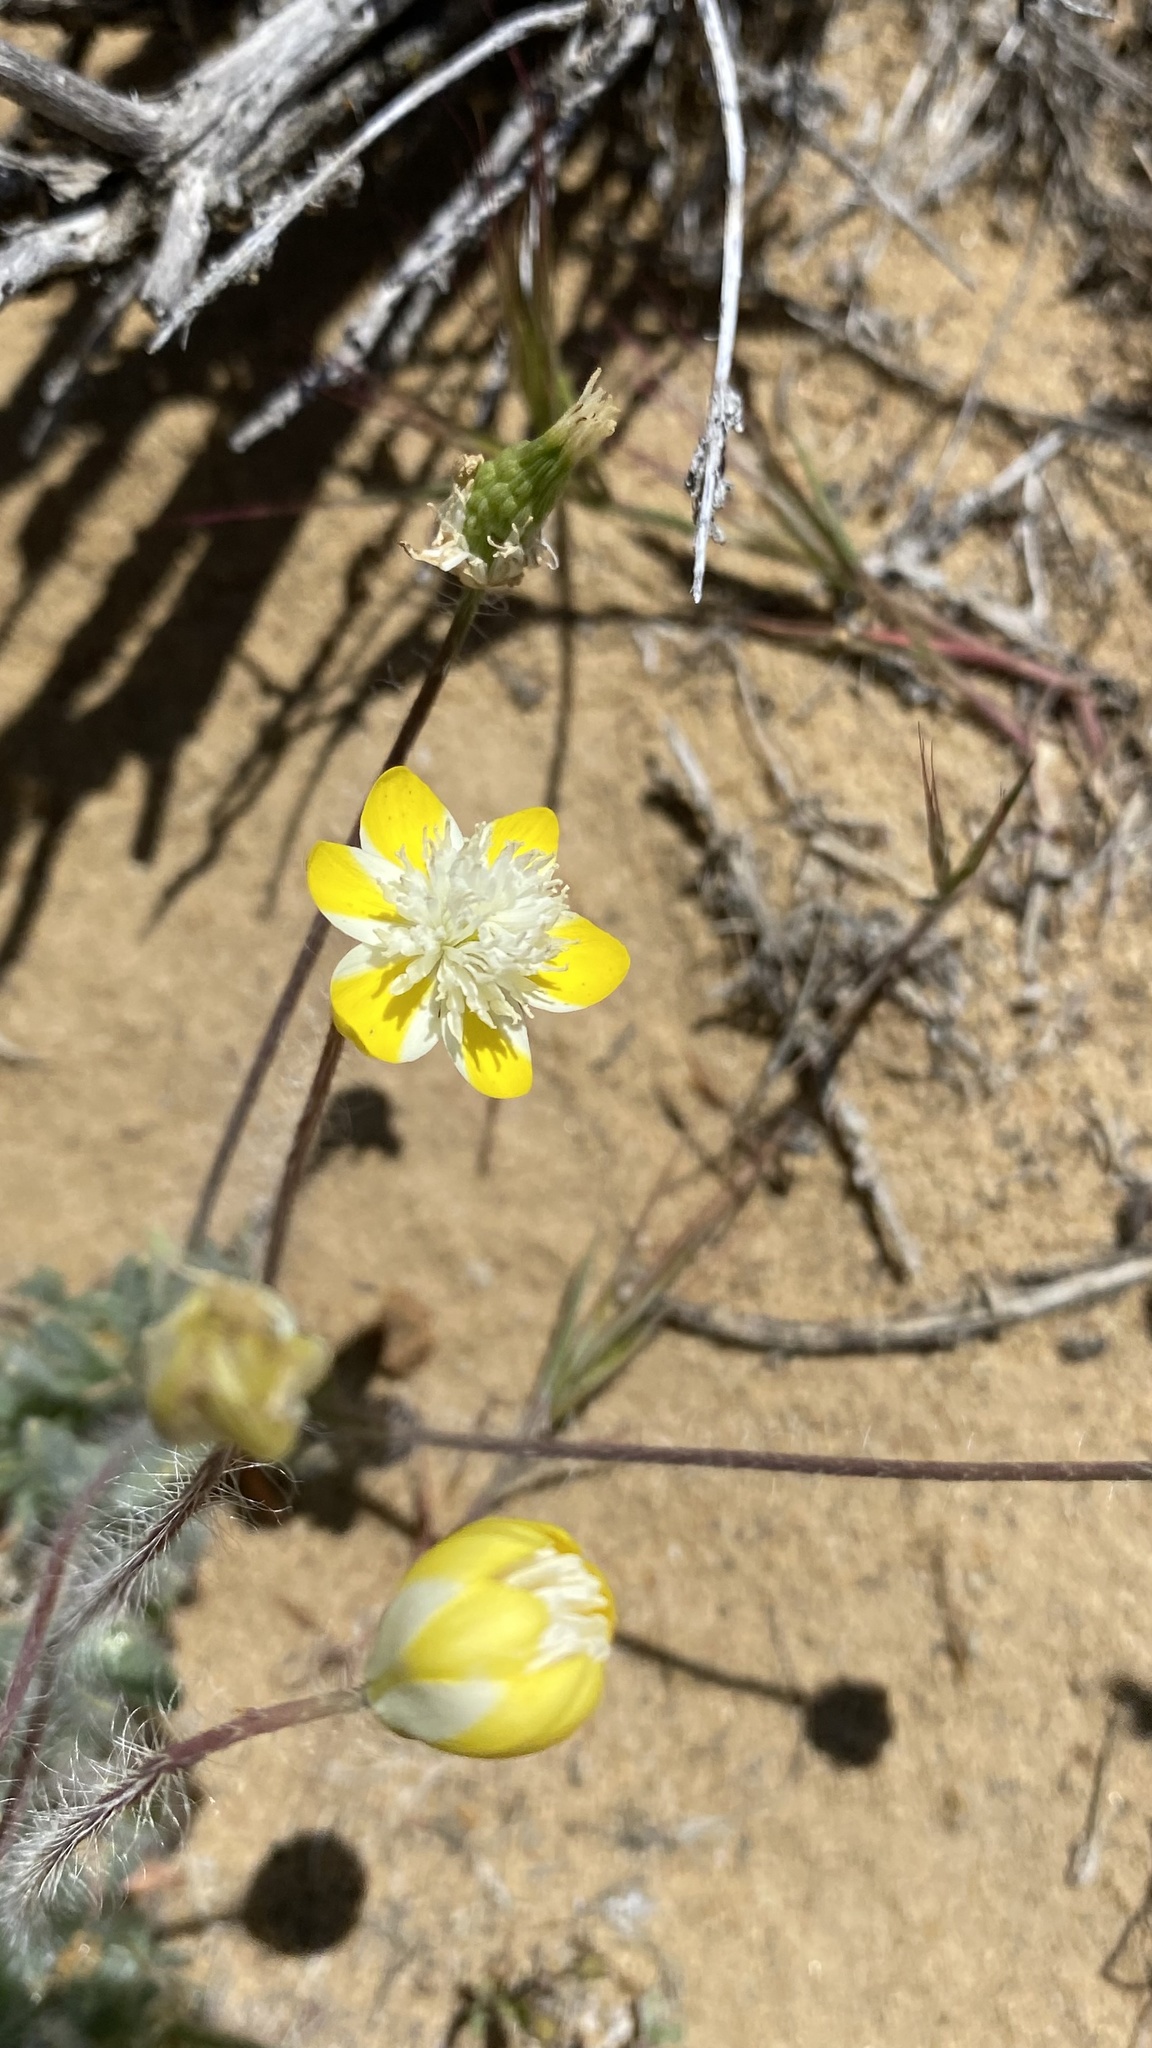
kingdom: Plantae
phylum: Tracheophyta
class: Magnoliopsida
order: Ranunculales
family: Papaveraceae
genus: Platystemon
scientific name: Platystemon californicus
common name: Cream-cups
